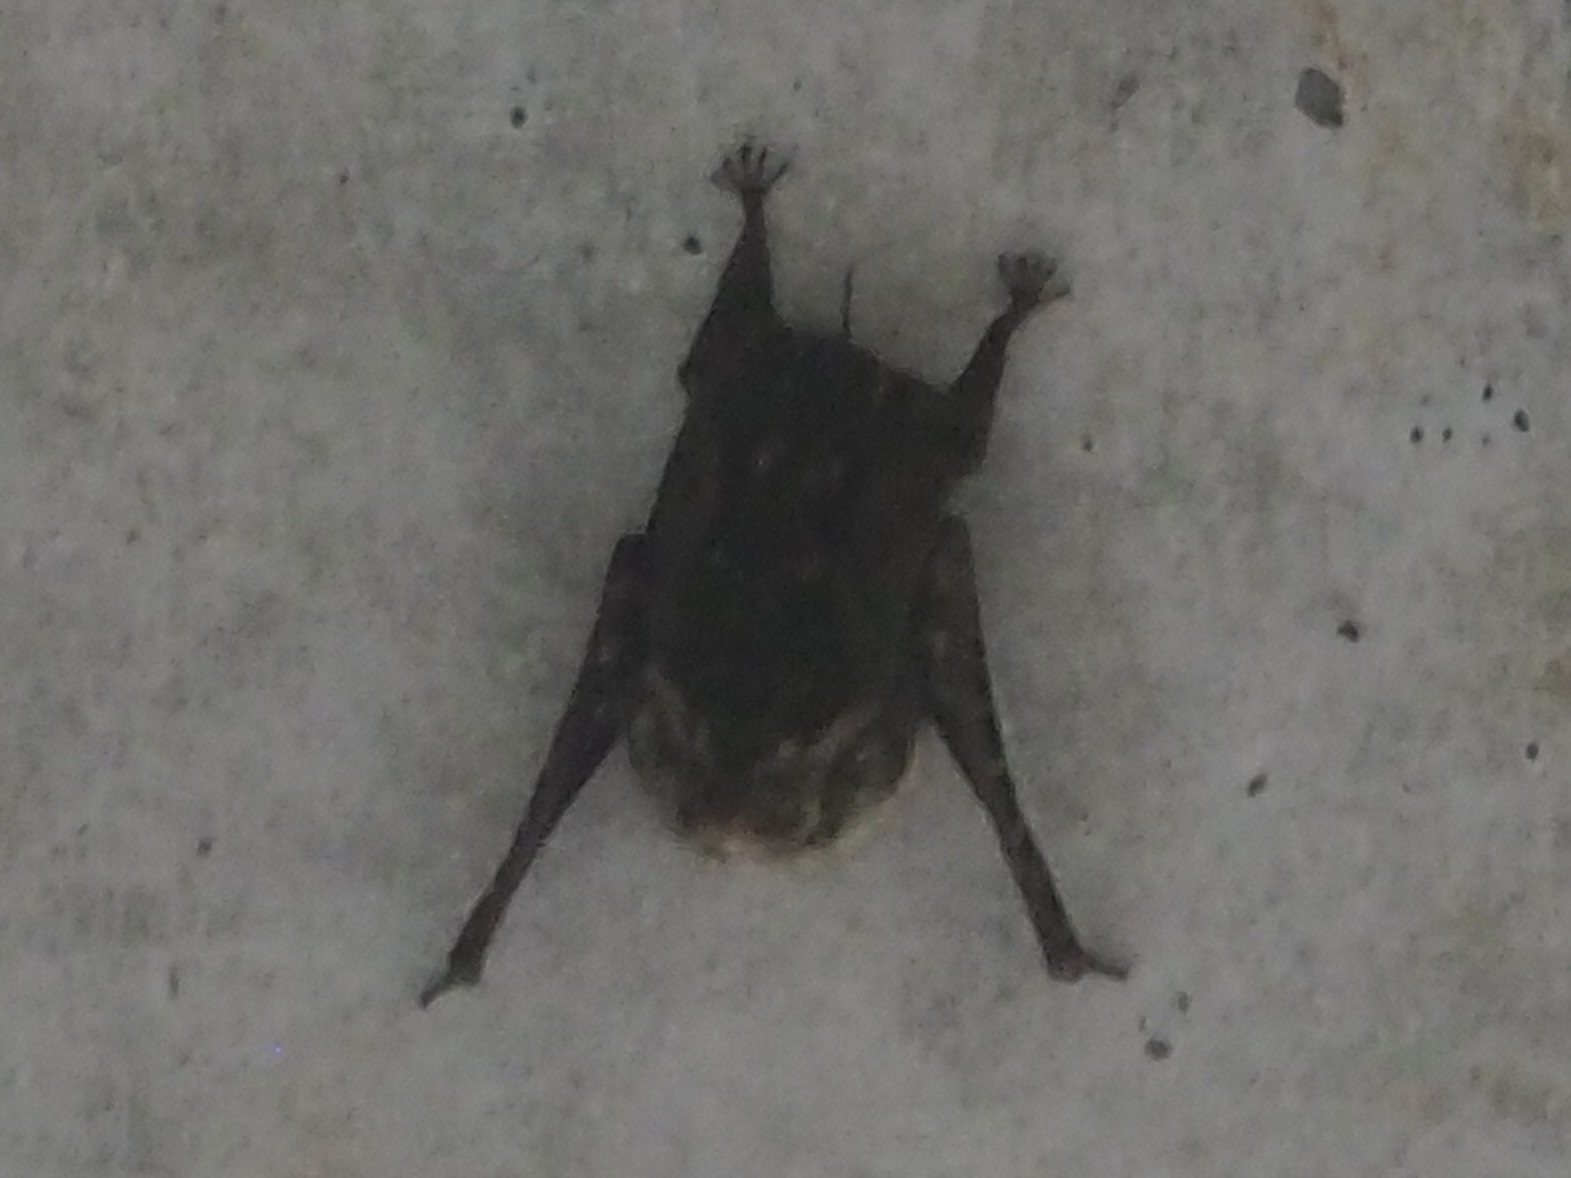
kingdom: Animalia
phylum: Chordata
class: Mammalia
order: Chiroptera
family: Emballonuridae
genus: Rhynchonycteris
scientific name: Rhynchonycteris naso
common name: Proboscis bat
